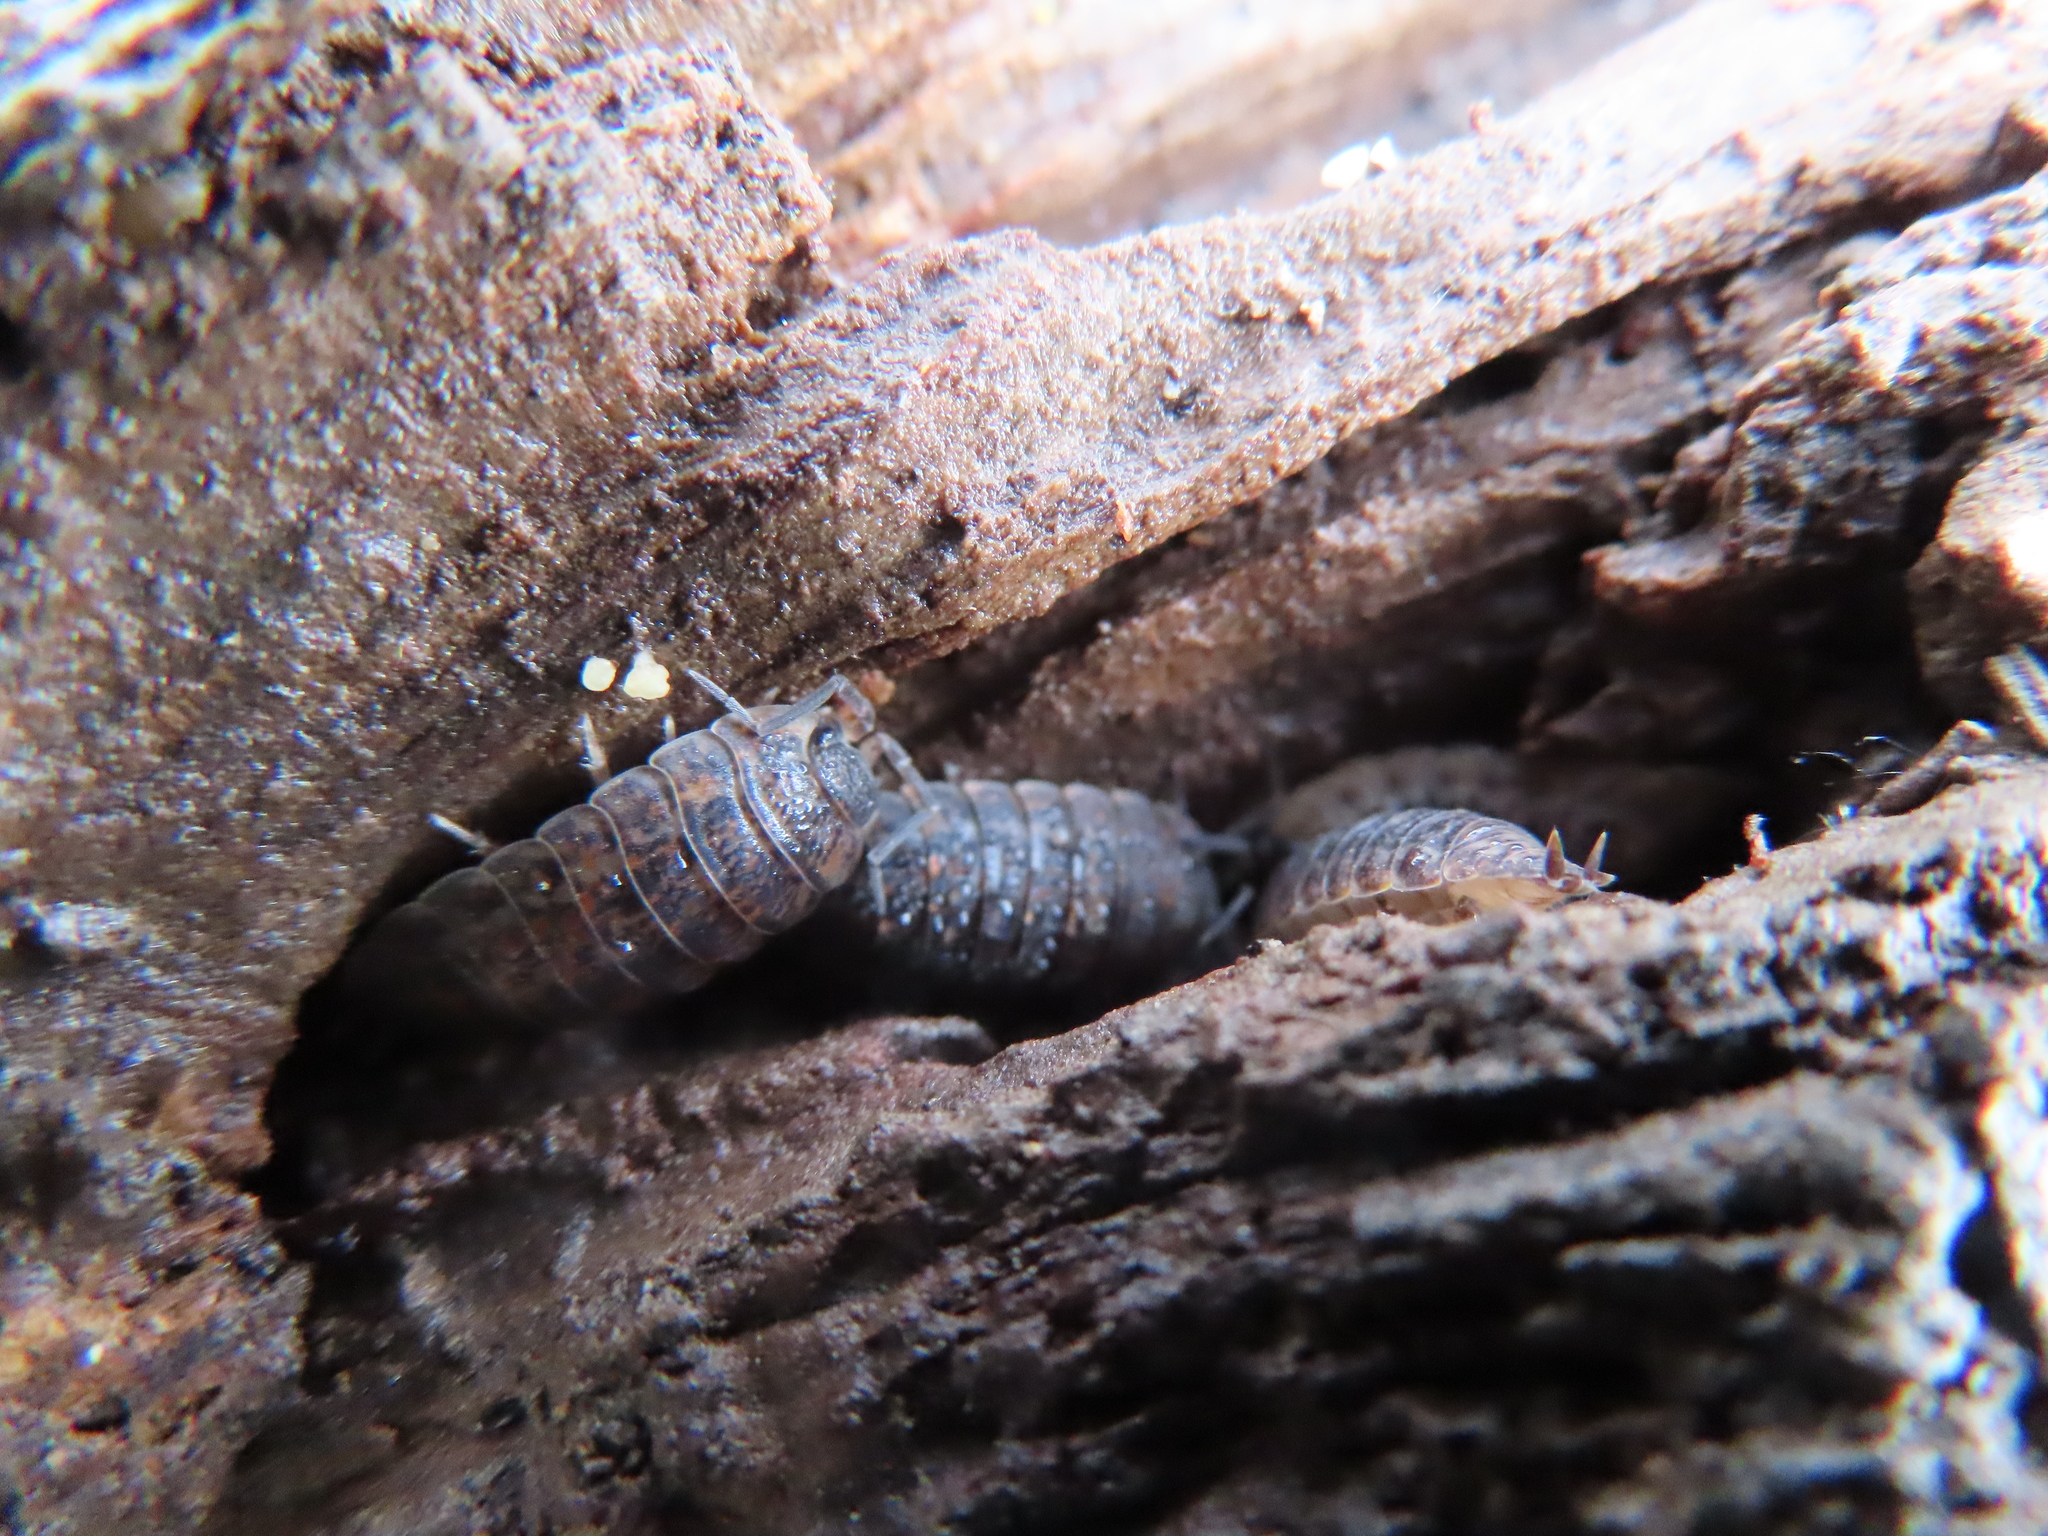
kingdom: Animalia
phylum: Arthropoda
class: Malacostraca
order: Isopoda
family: Trachelipodidae
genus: Trachelipus
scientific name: Trachelipus rathkii
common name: Isopod
